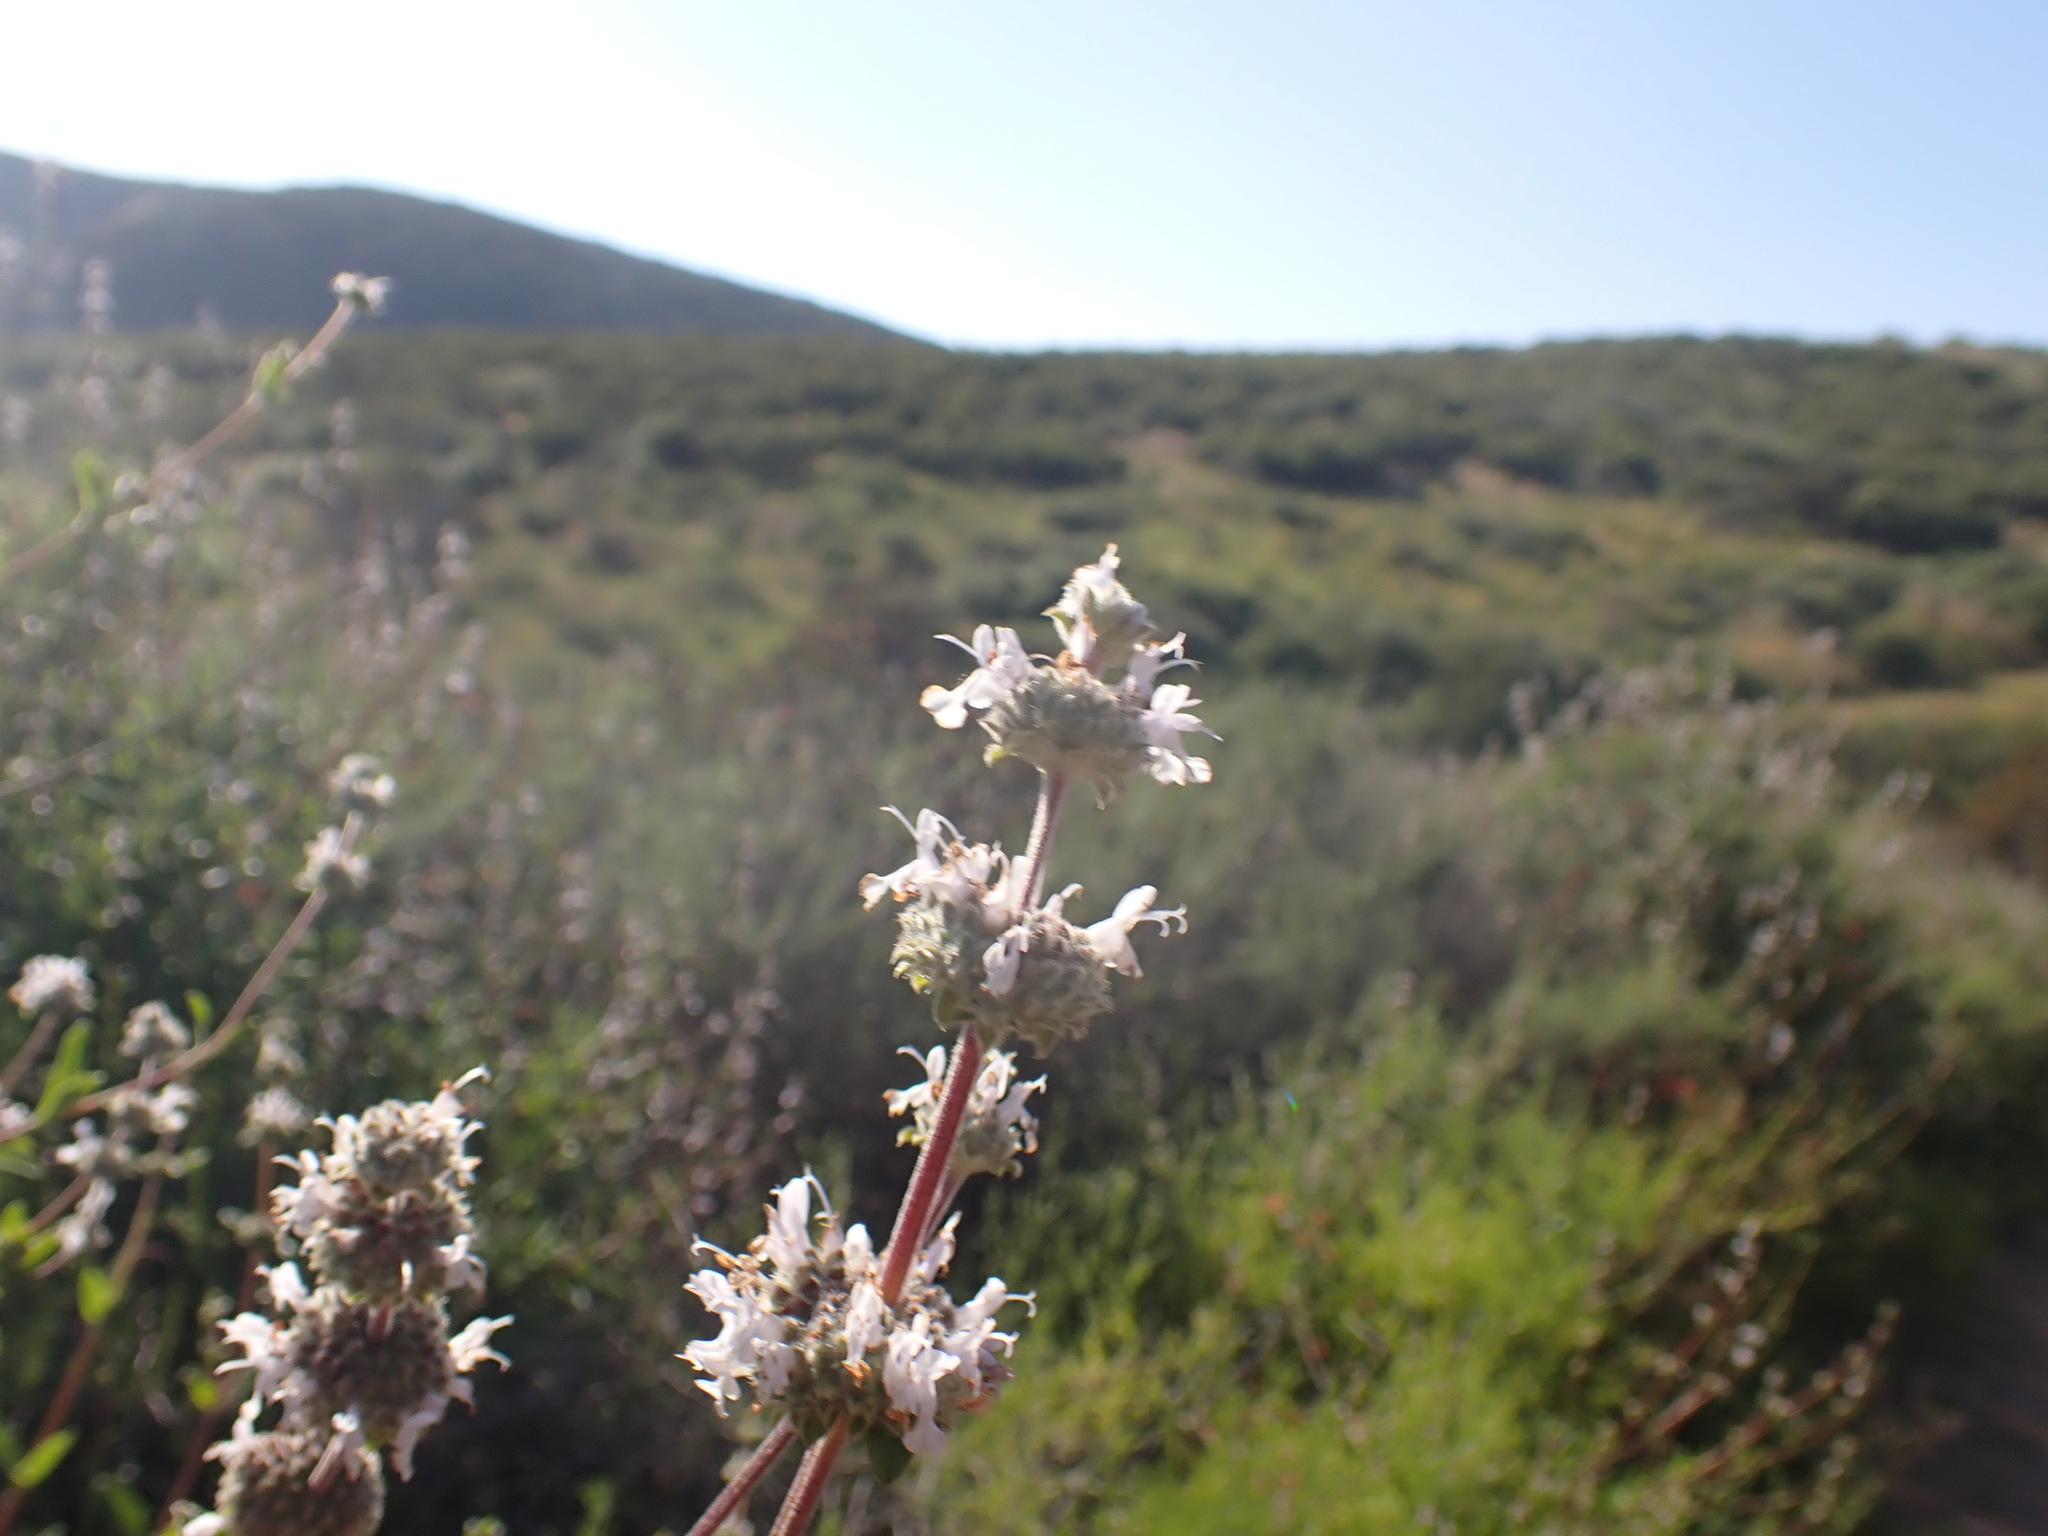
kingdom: Plantae
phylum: Tracheophyta
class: Magnoliopsida
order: Lamiales
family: Lamiaceae
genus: Salvia
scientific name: Salvia mellifera
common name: Black sage
